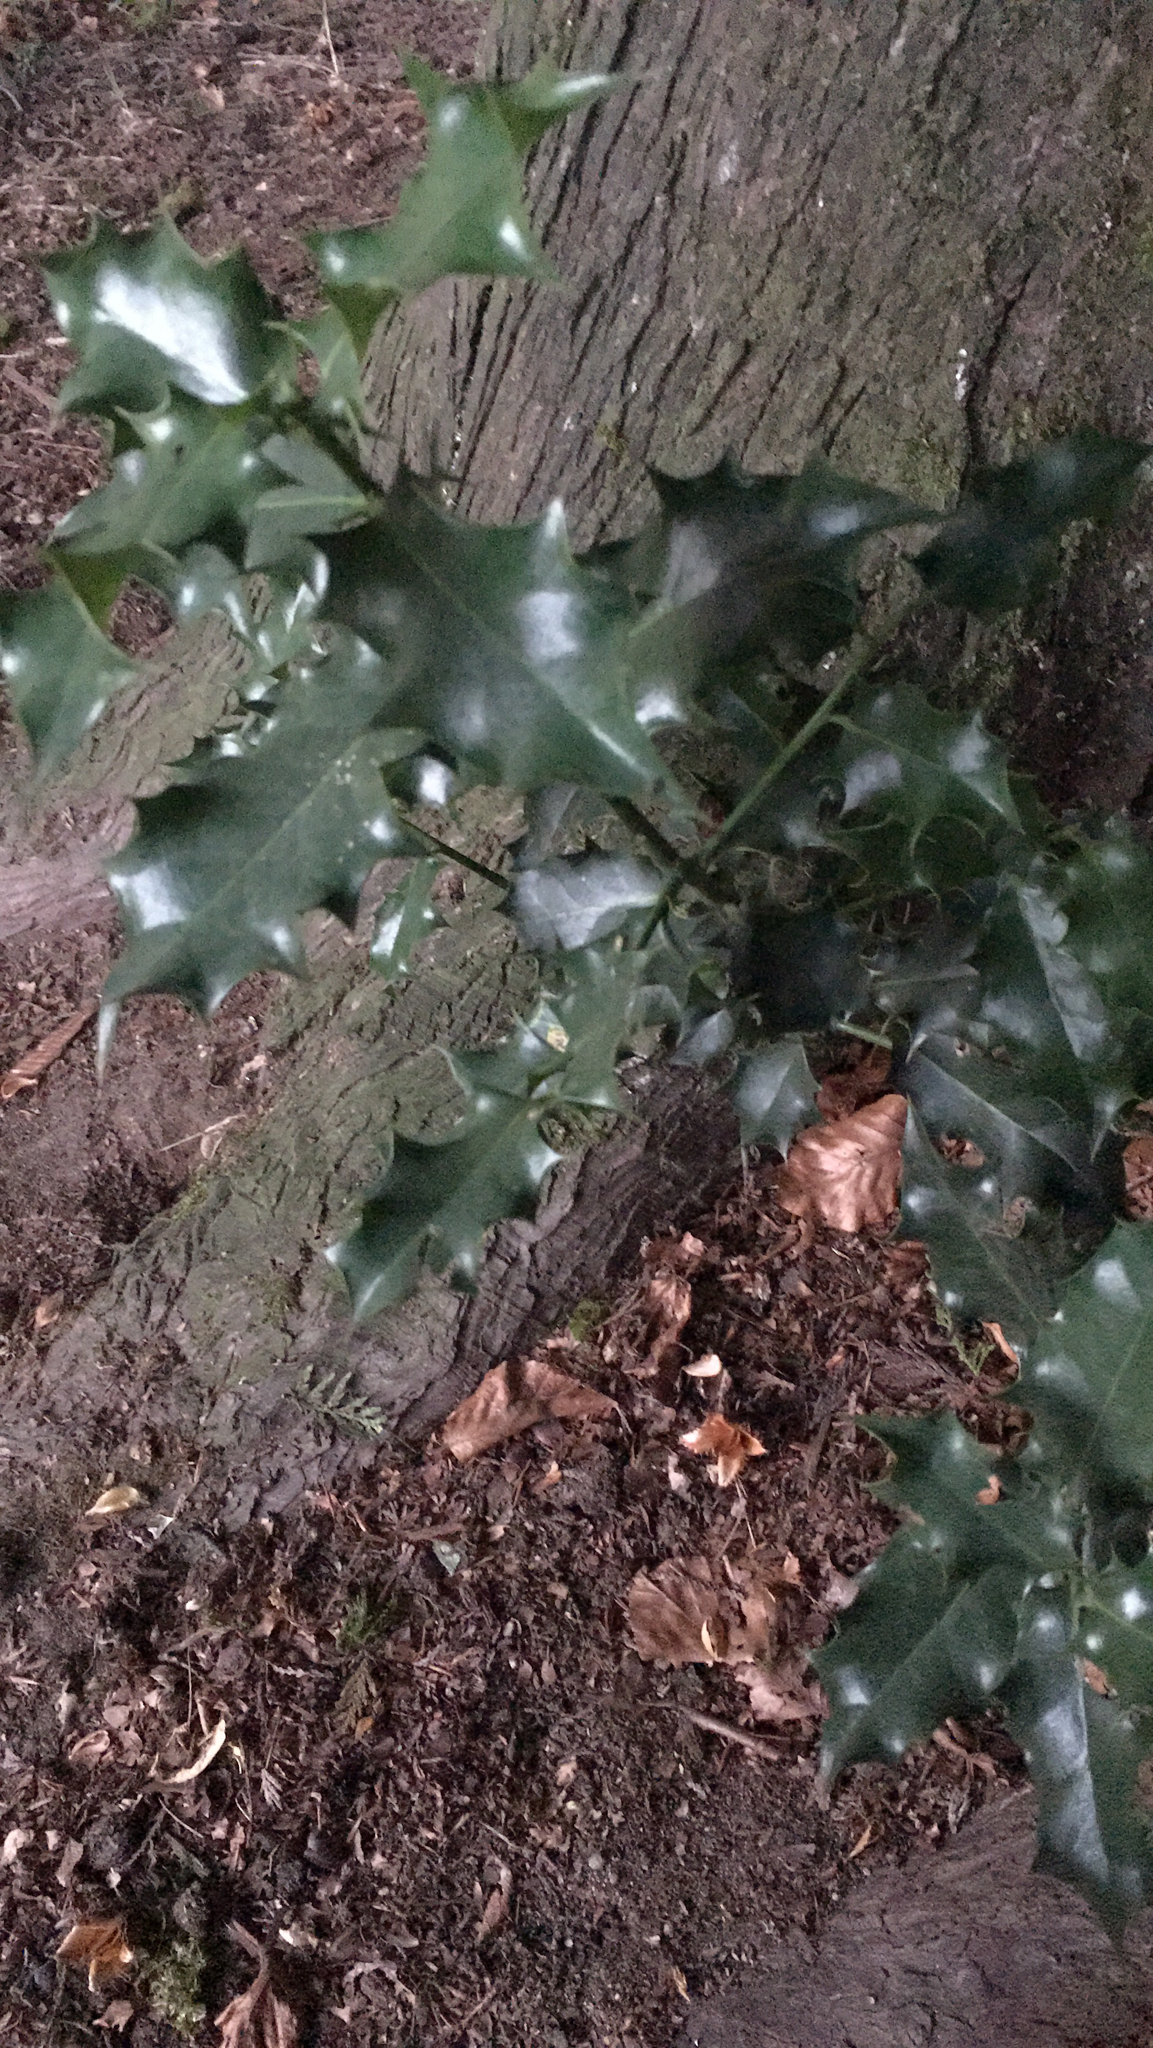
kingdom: Plantae
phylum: Tracheophyta
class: Magnoliopsida
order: Aquifoliales
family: Aquifoliaceae
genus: Ilex
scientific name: Ilex aquifolium
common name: English holly
